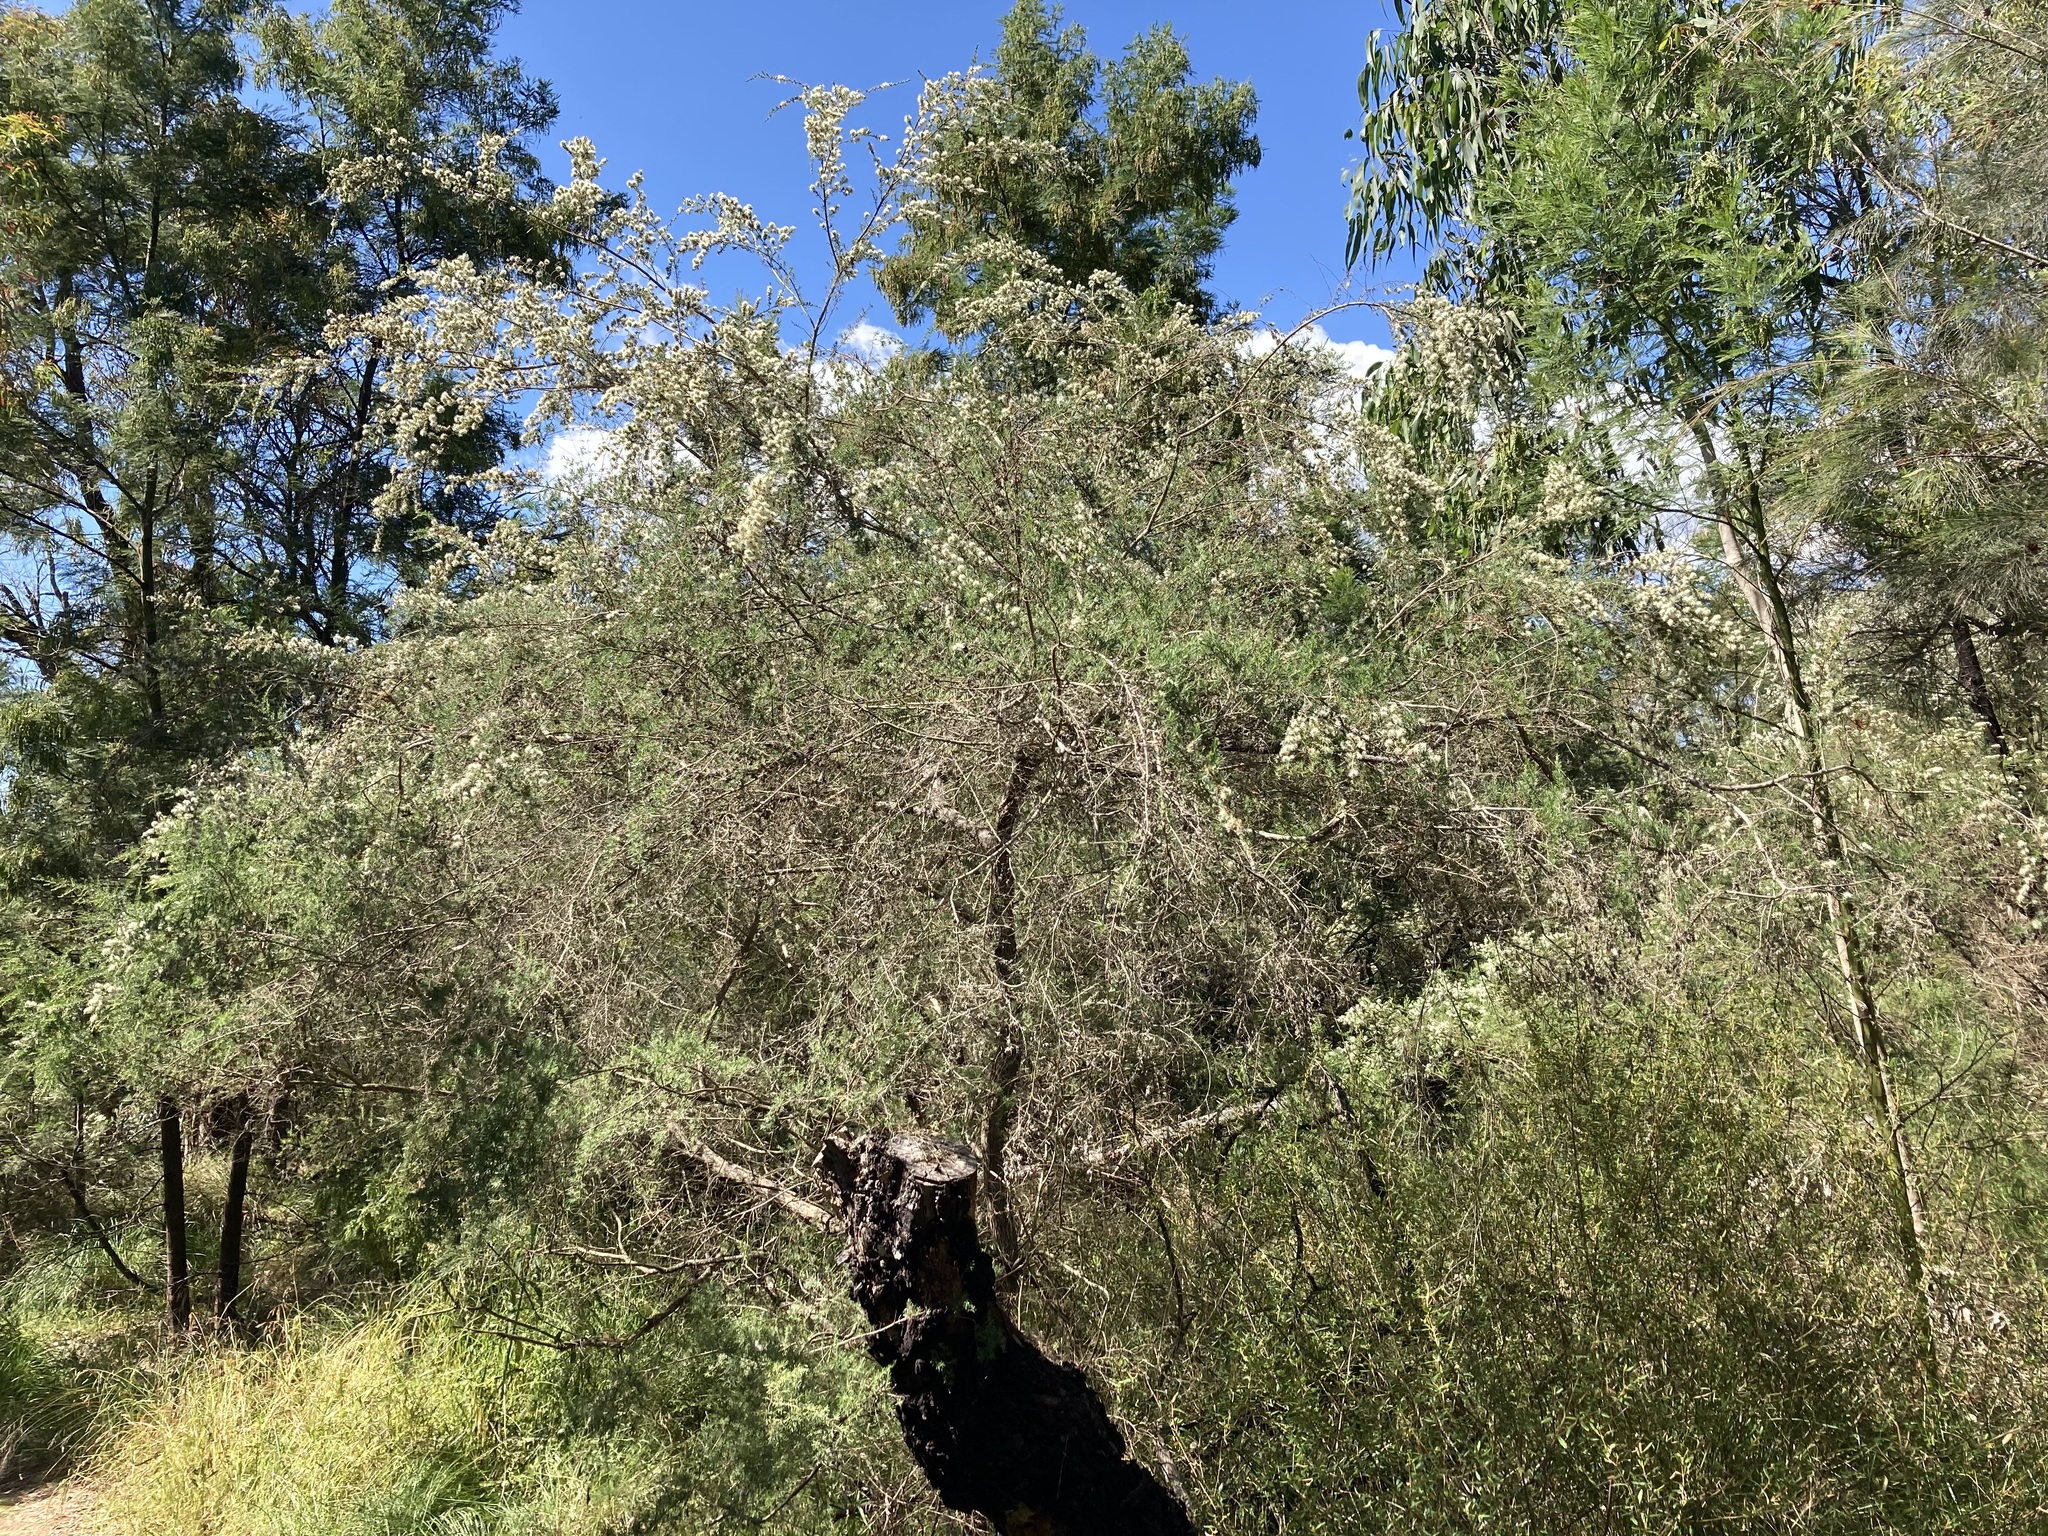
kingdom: Plantae
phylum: Tracheophyta
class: Magnoliopsida
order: Myrtales
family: Myrtaceae
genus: Kunzea
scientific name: Kunzea ambigua
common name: Tickbush
